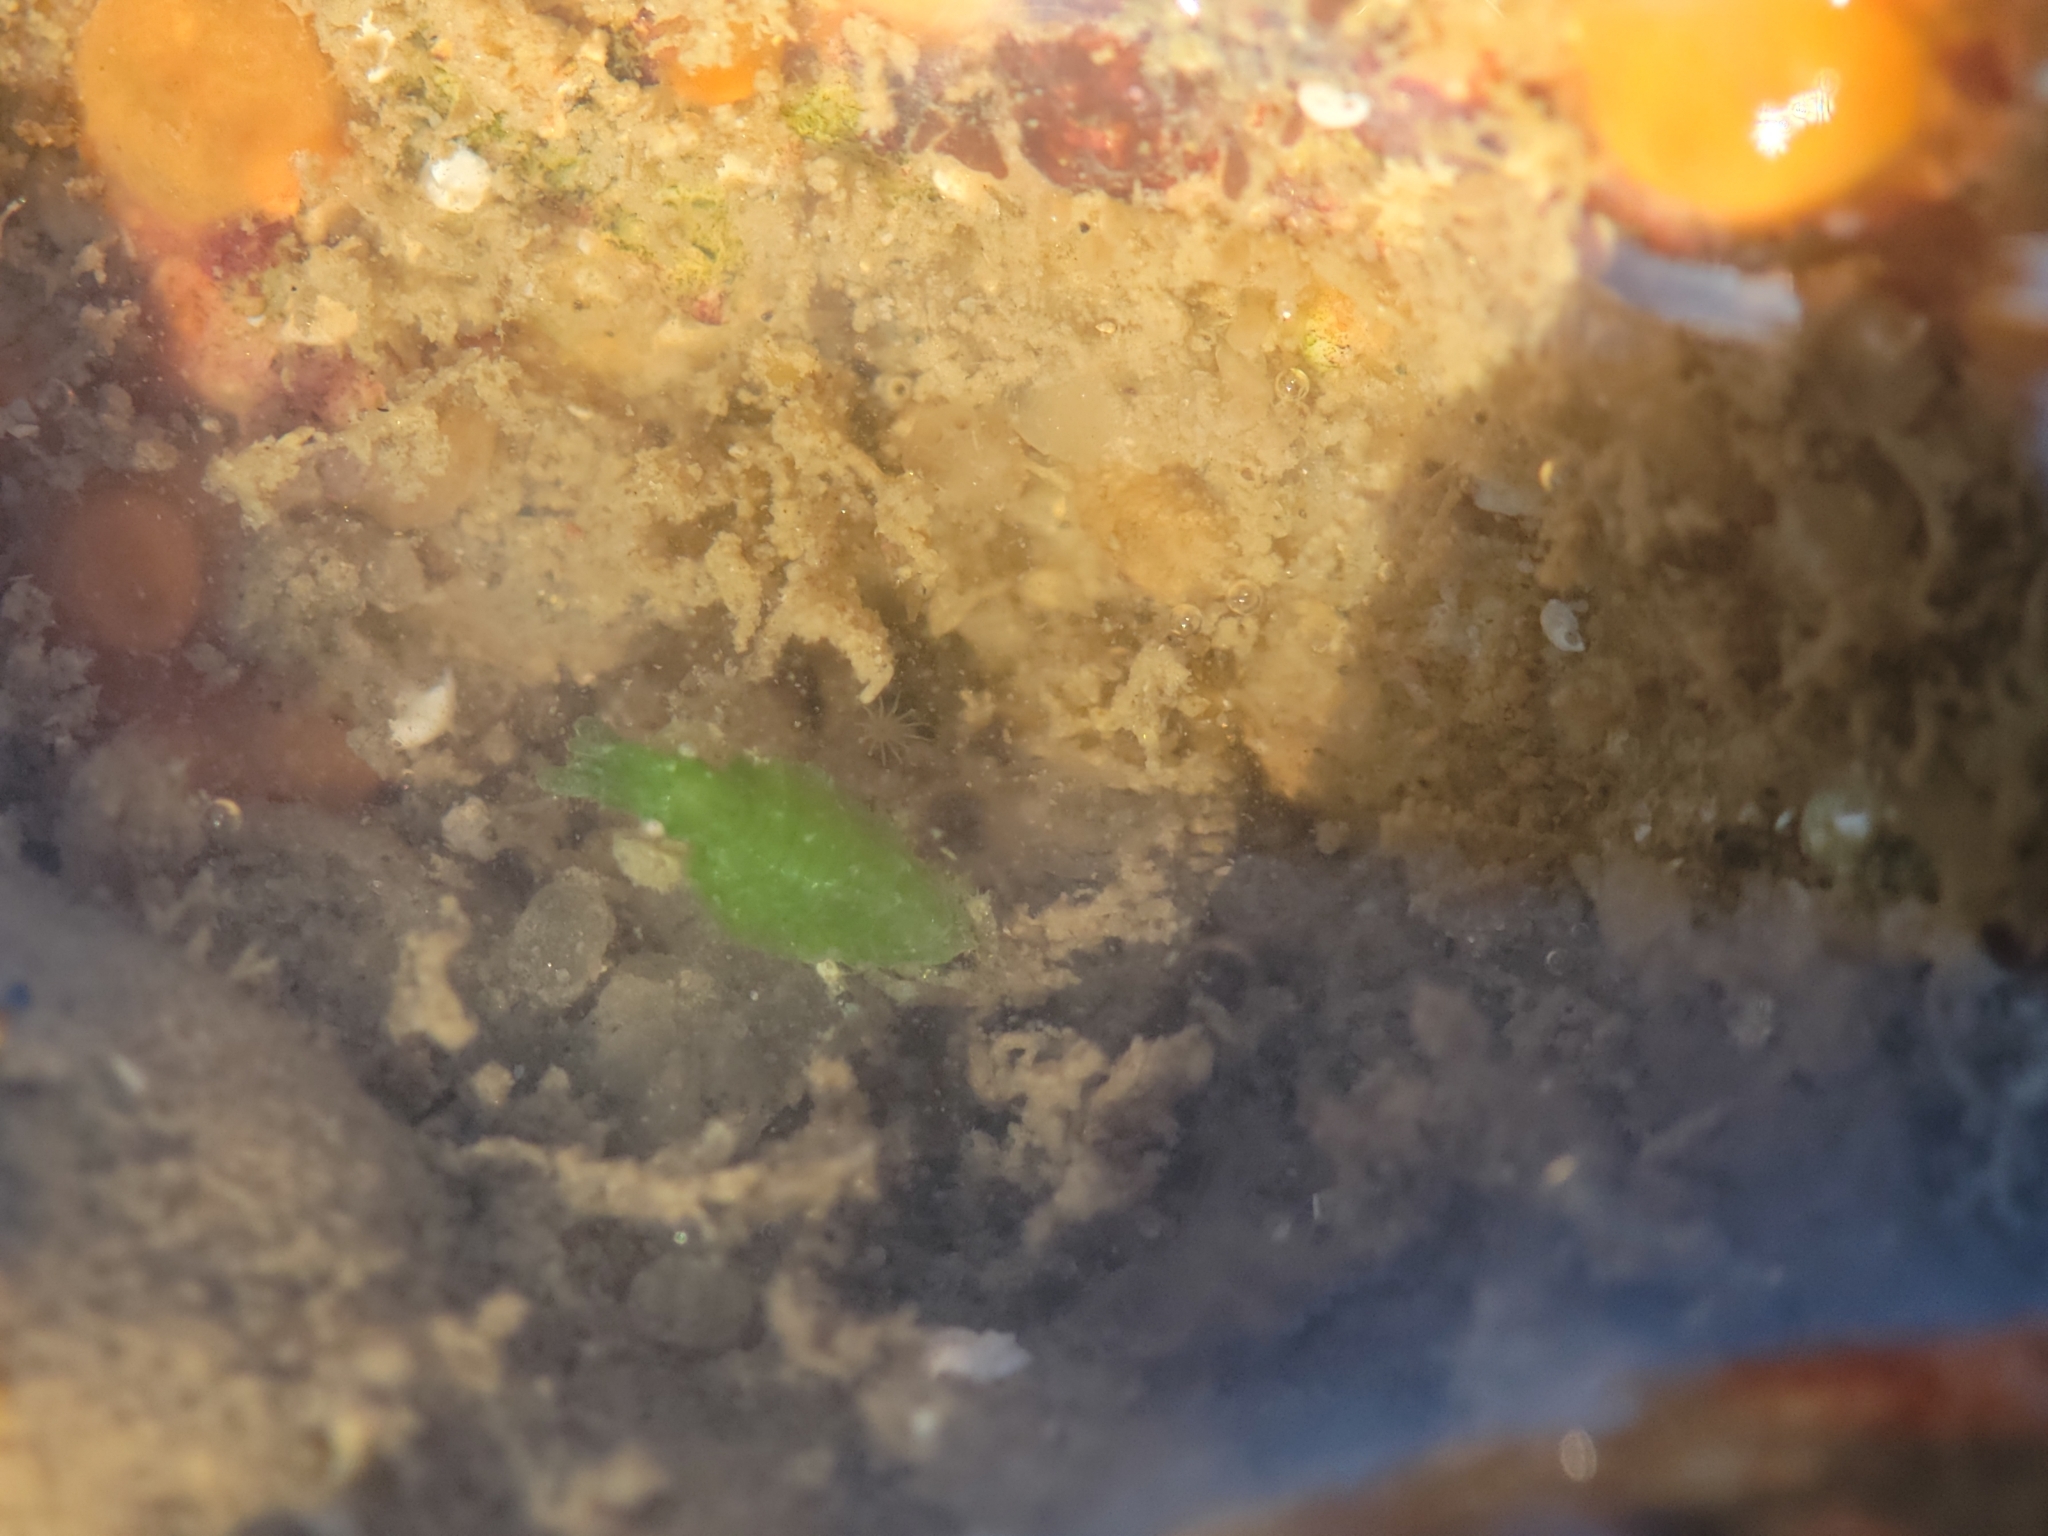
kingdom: Animalia
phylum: Arthropoda
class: Malacostraca
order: Amphipoda
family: Podoceridae
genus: Podocerus
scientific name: Podocerus cristatus
